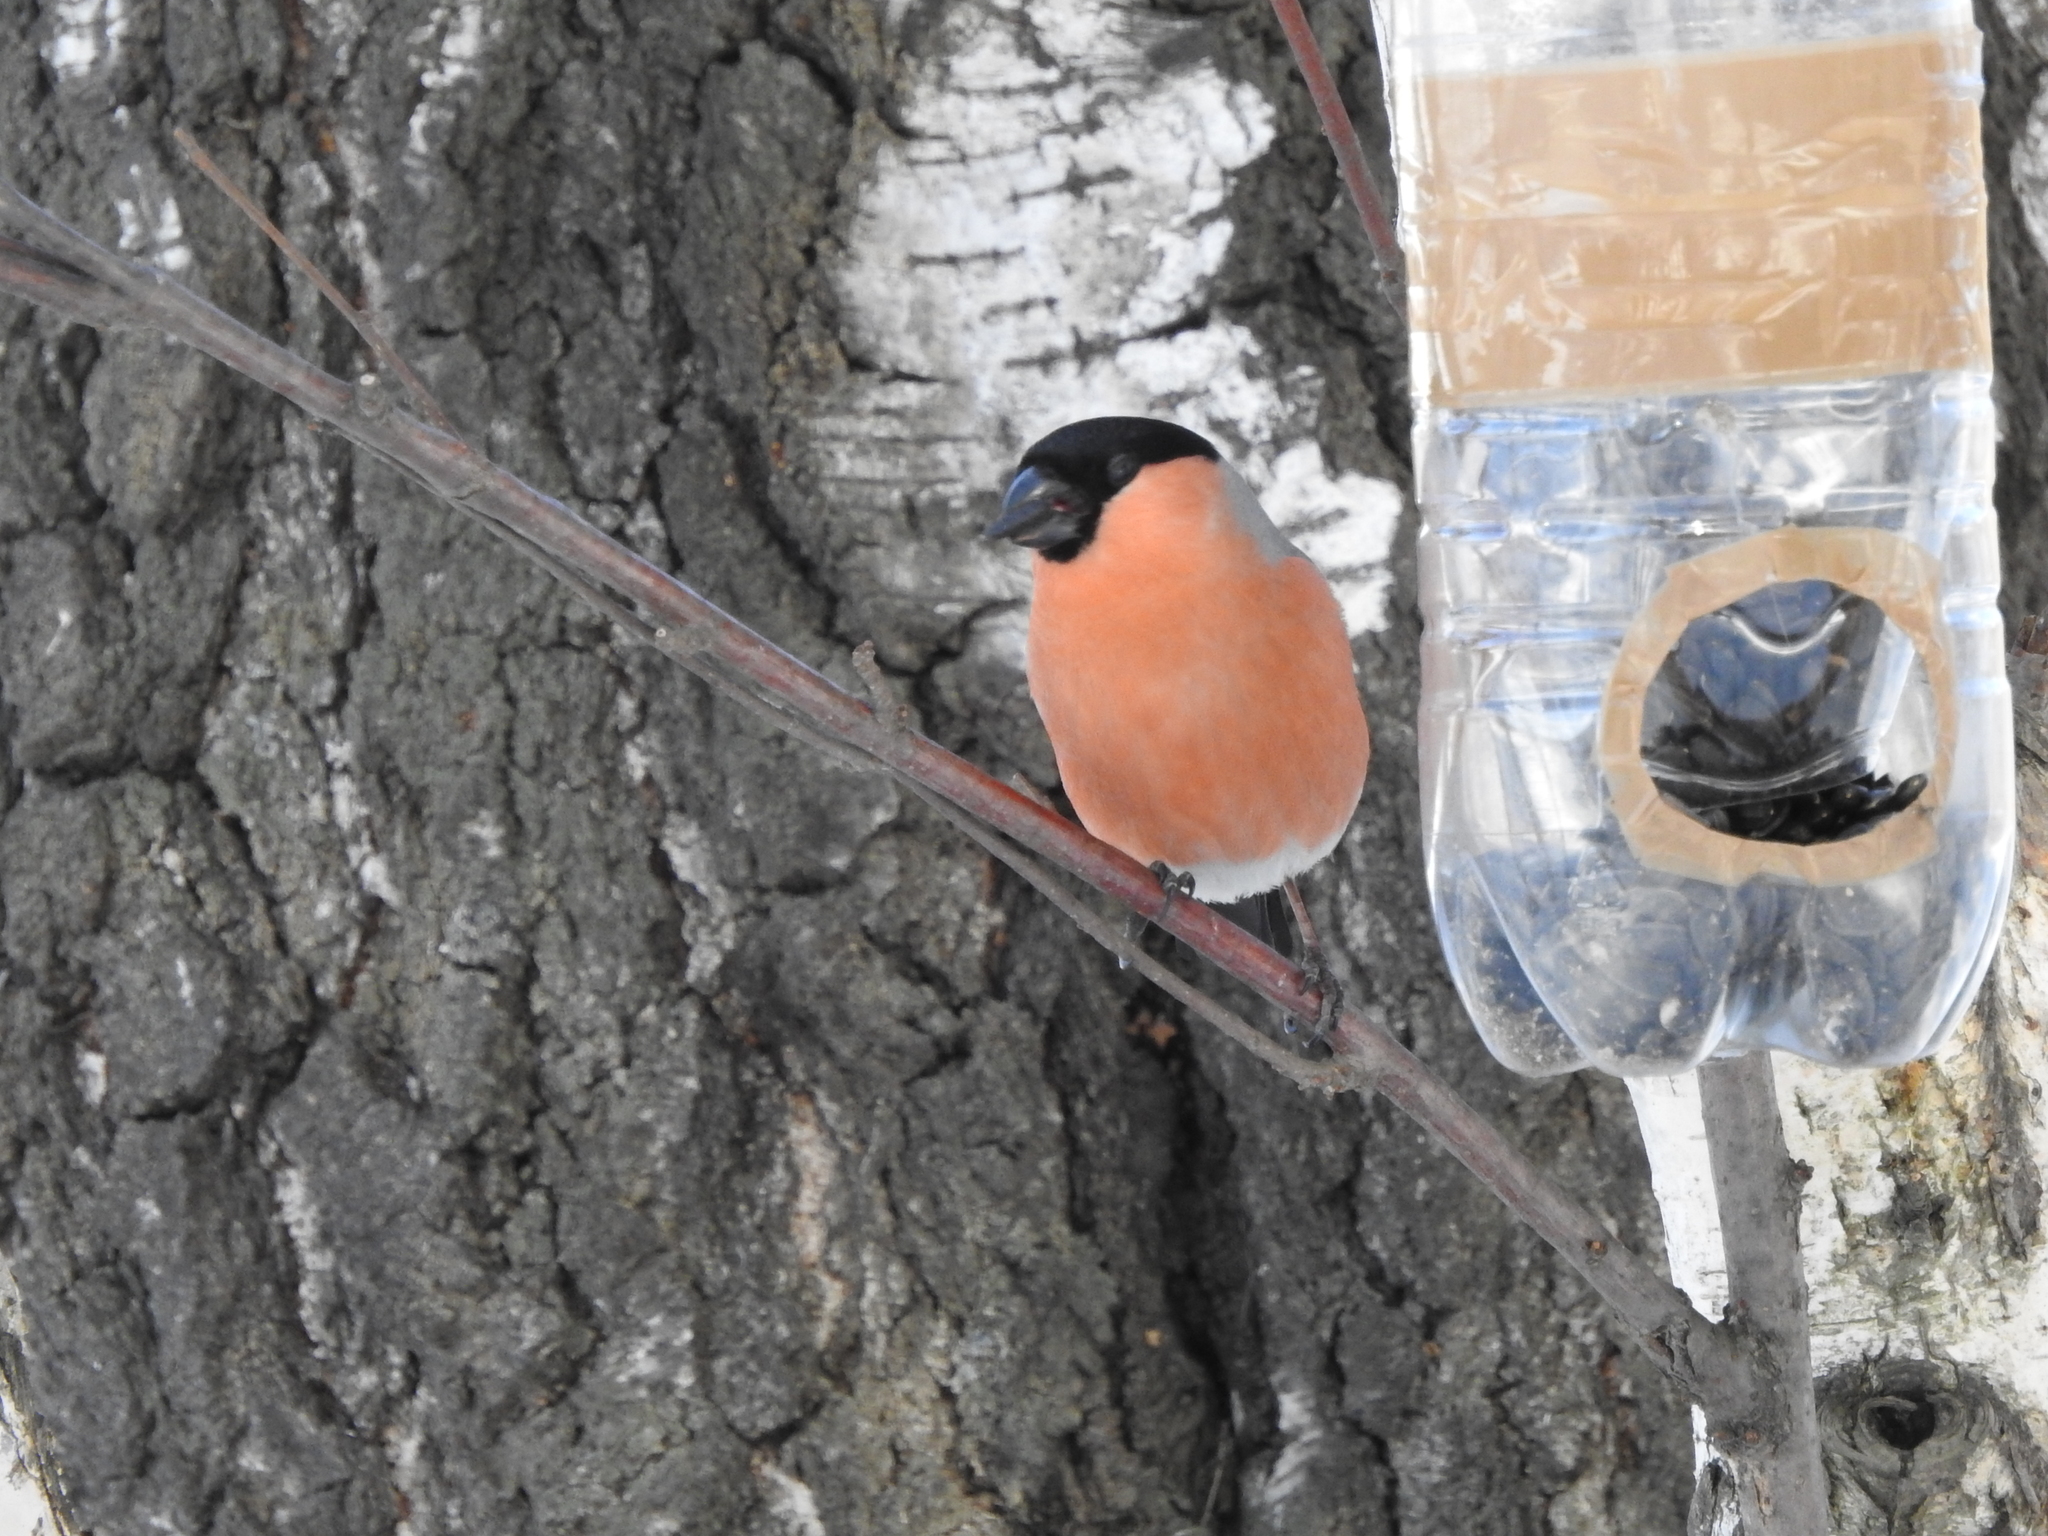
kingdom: Animalia
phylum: Chordata
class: Aves
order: Passeriformes
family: Fringillidae
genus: Pyrrhula
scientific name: Pyrrhula pyrrhula
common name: Eurasian bullfinch
